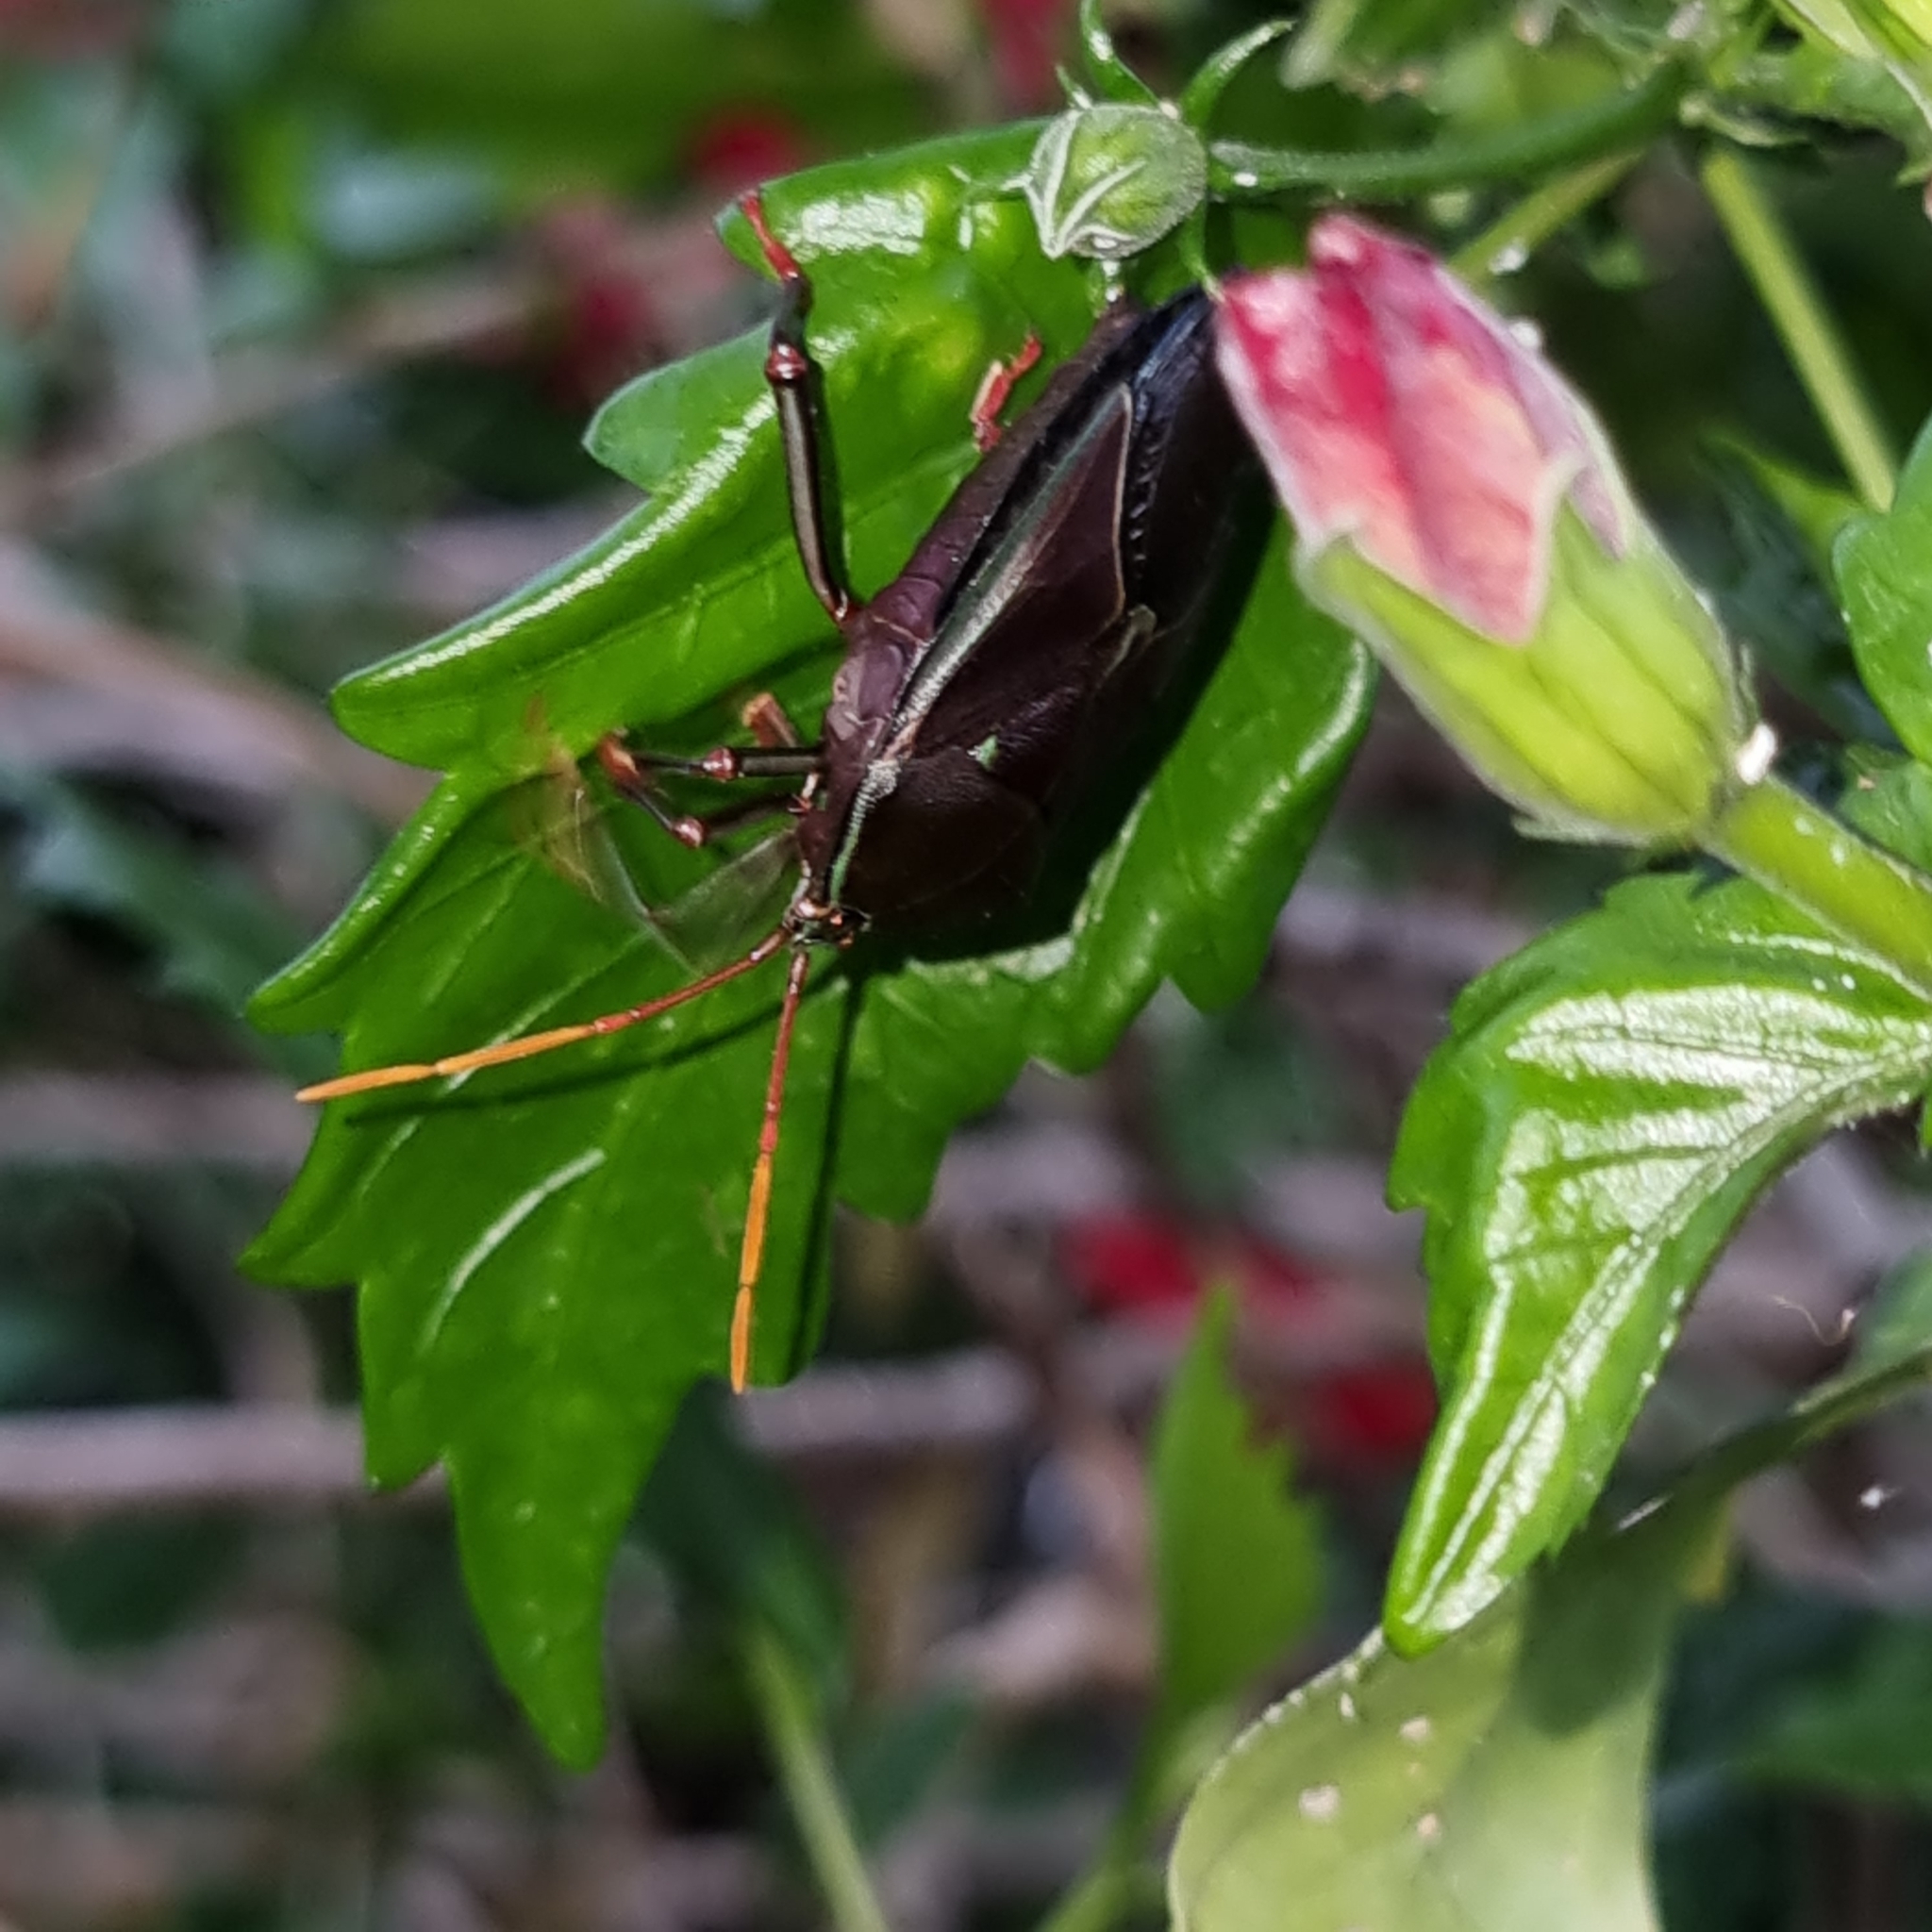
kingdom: Animalia
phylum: Arthropoda
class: Insecta
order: Hemiptera
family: Tessaratomidae
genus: Musgraveia
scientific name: Musgraveia sulciventris
